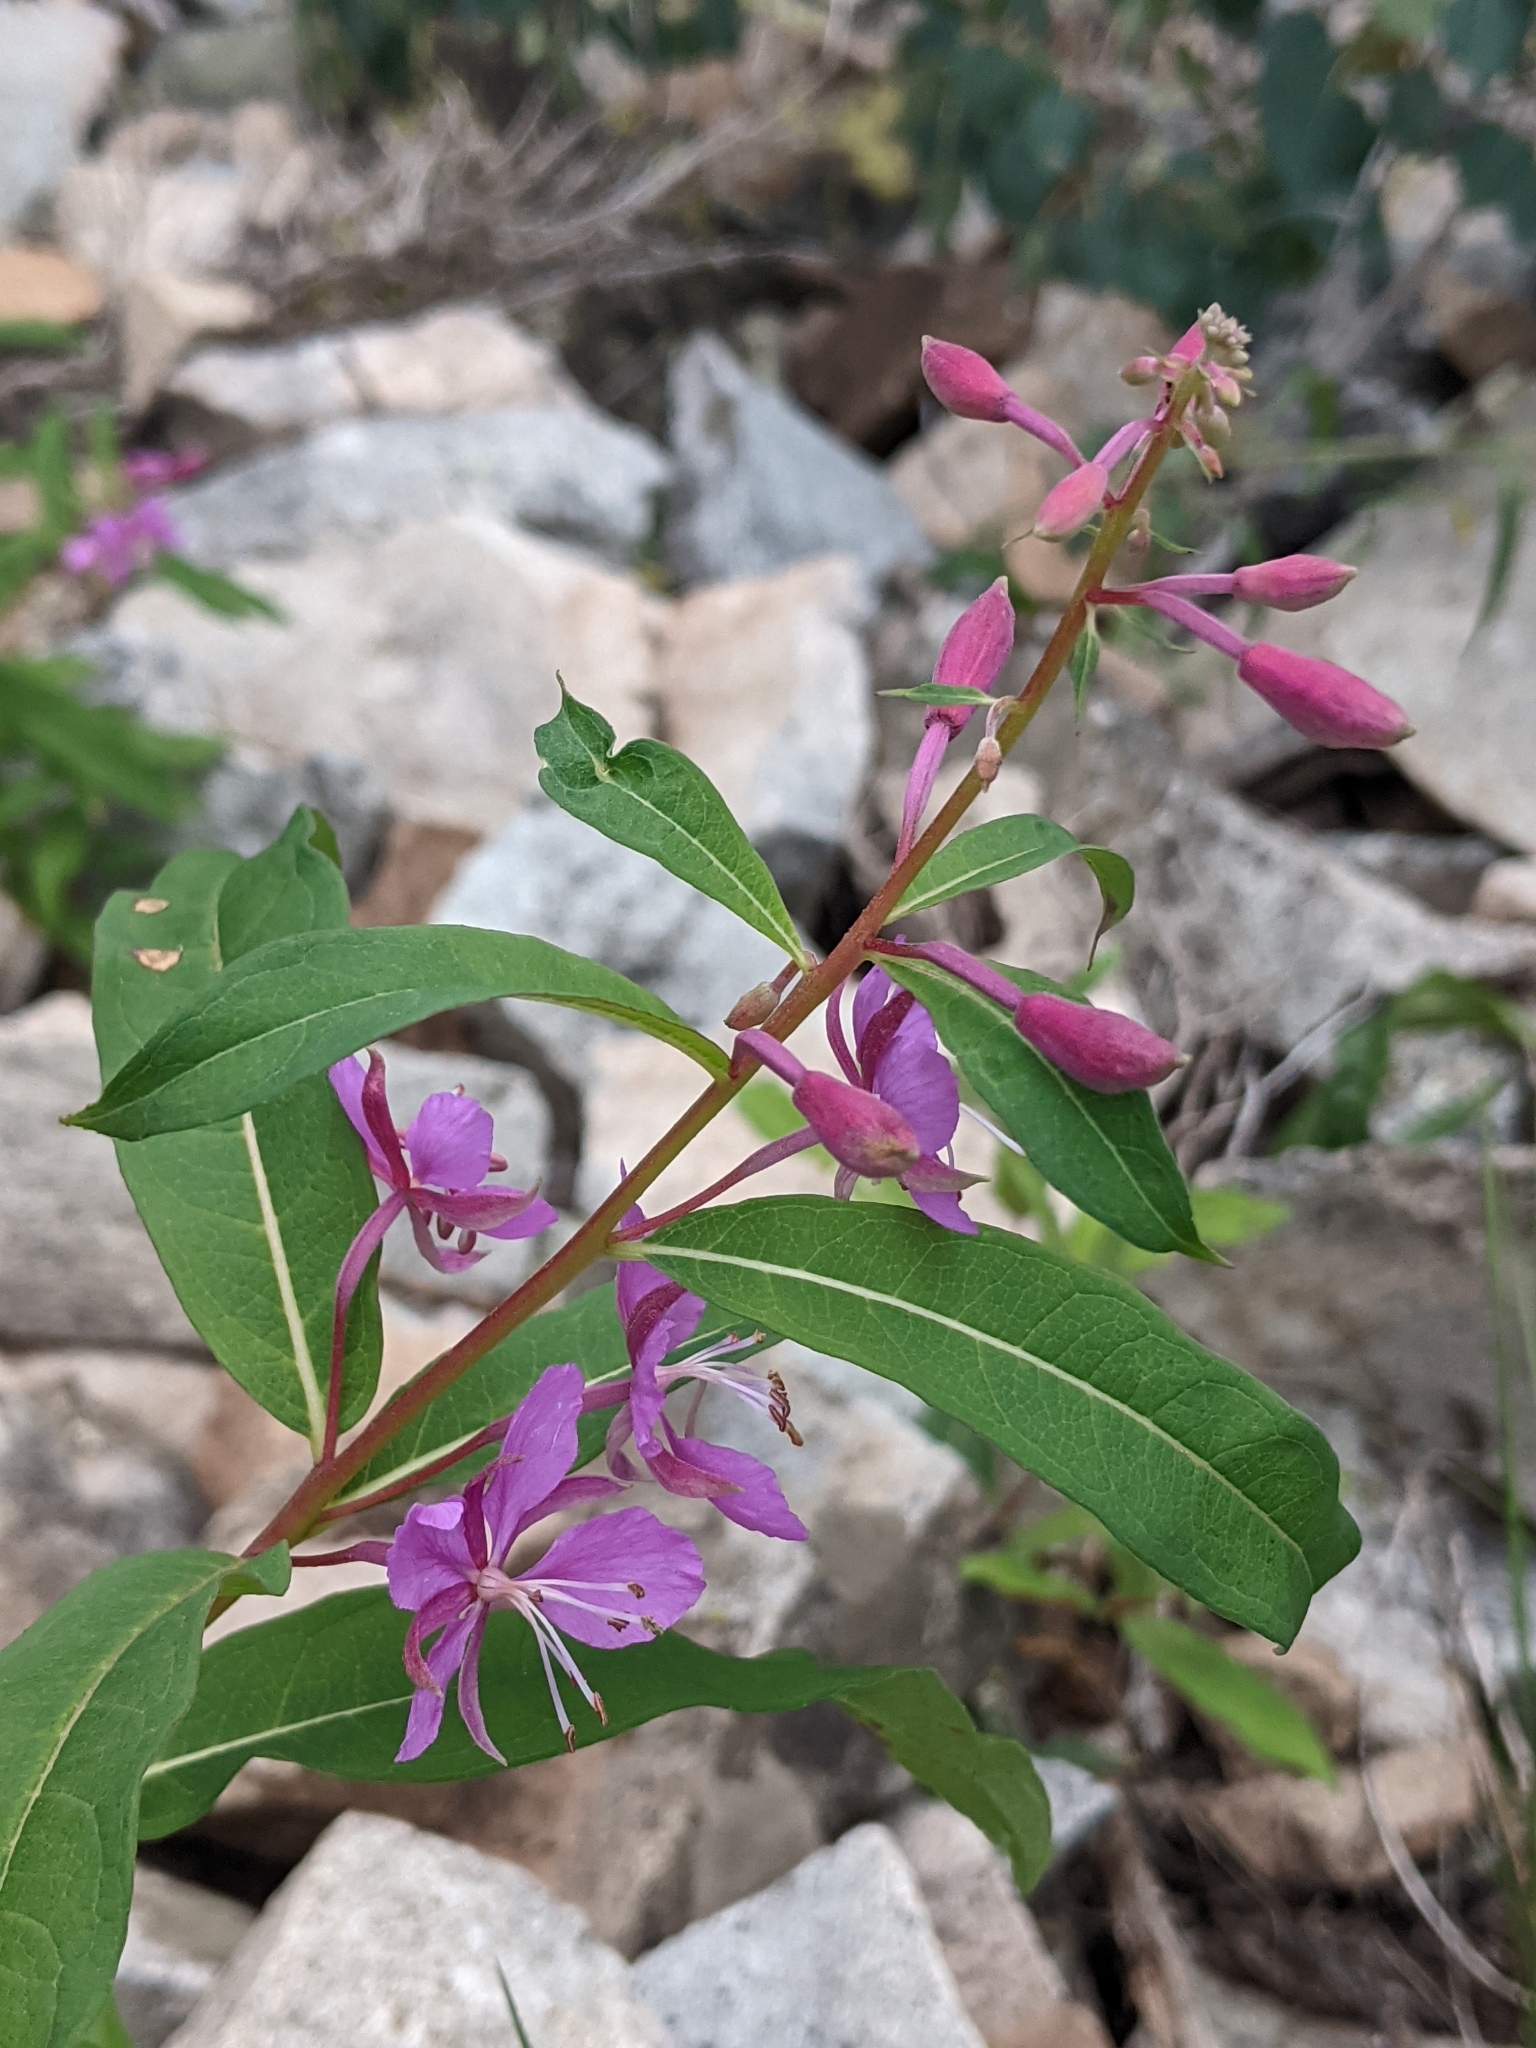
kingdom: Plantae
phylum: Tracheophyta
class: Magnoliopsida
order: Myrtales
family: Onagraceae
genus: Chamaenerion
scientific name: Chamaenerion angustifolium
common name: Fireweed
